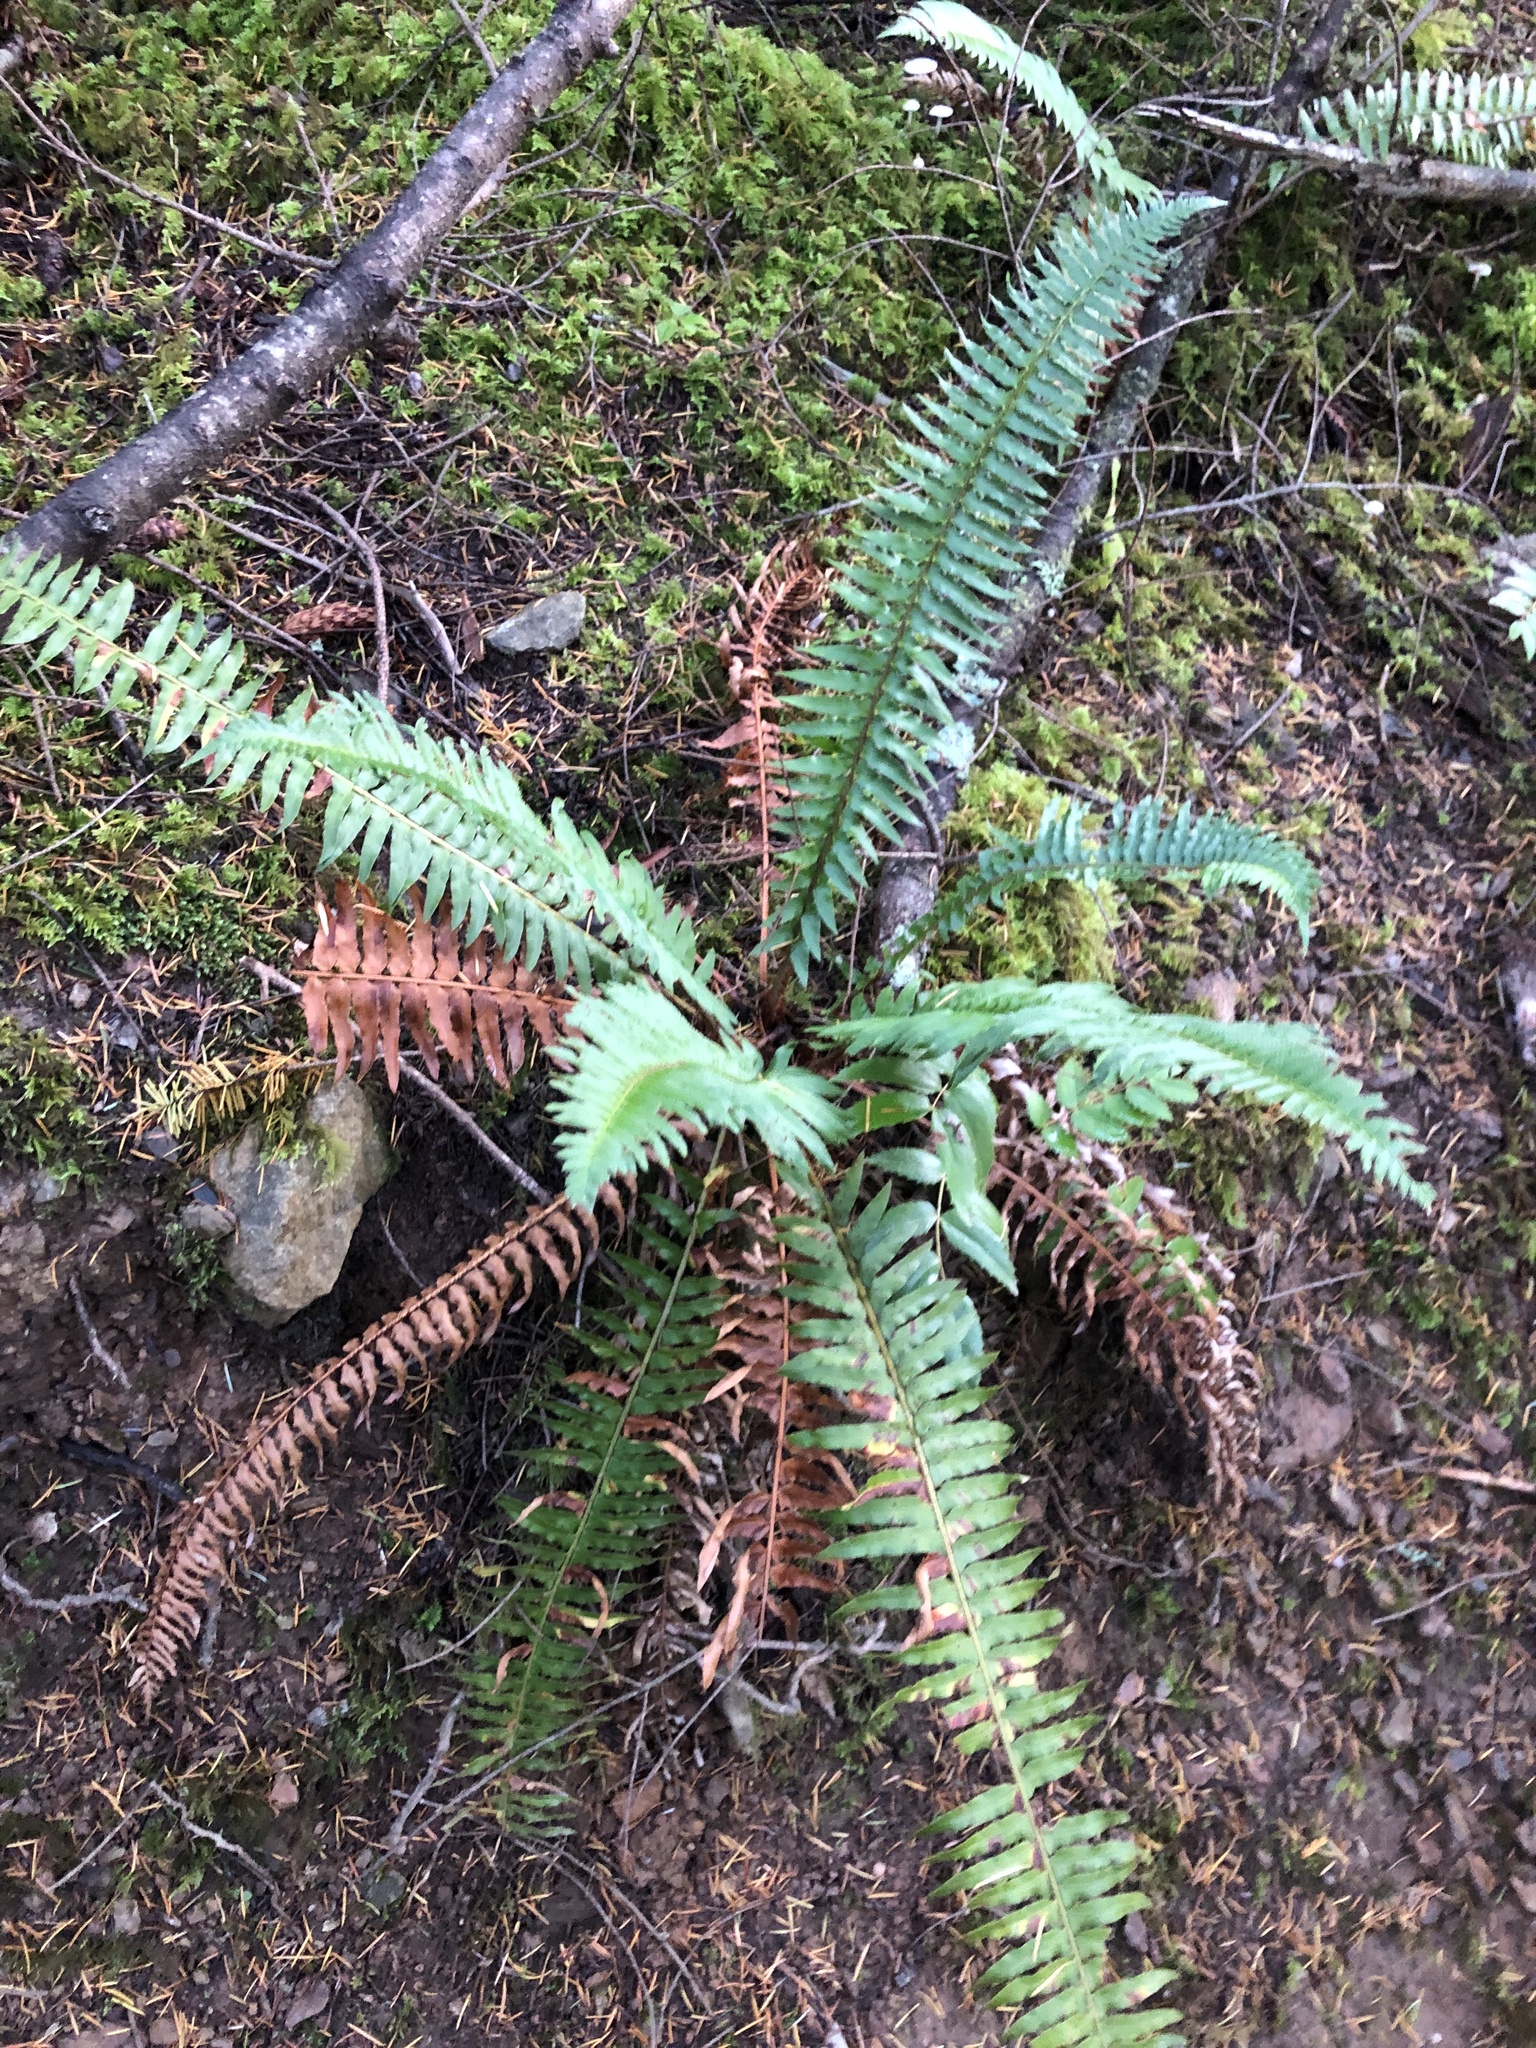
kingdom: Plantae
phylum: Tracheophyta
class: Polypodiopsida
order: Polypodiales
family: Dryopteridaceae
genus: Polystichum
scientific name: Polystichum munitum
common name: Western sword-fern
